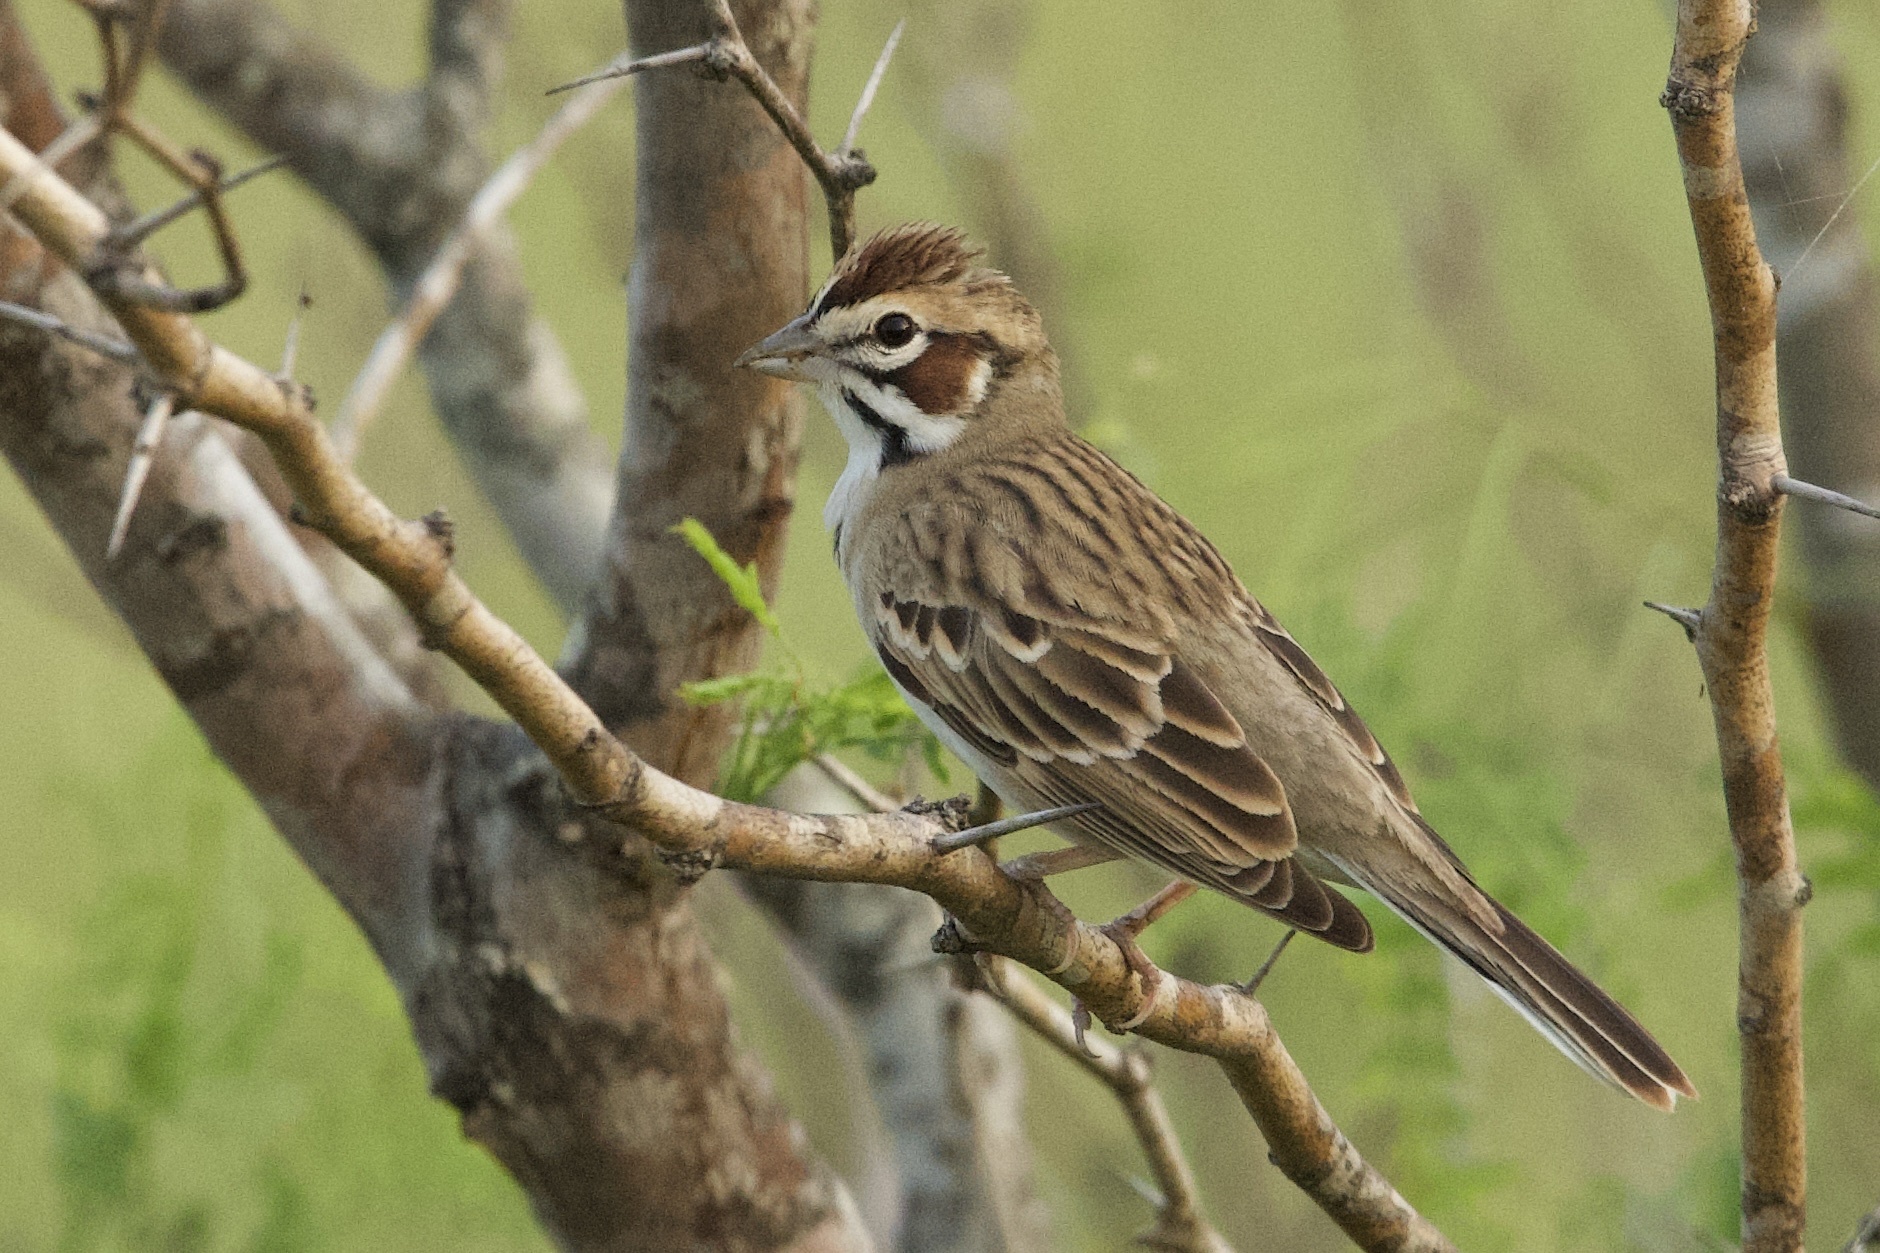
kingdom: Animalia
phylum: Chordata
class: Aves
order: Passeriformes
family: Passerellidae
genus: Chondestes
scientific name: Chondestes grammacus
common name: Lark sparrow
